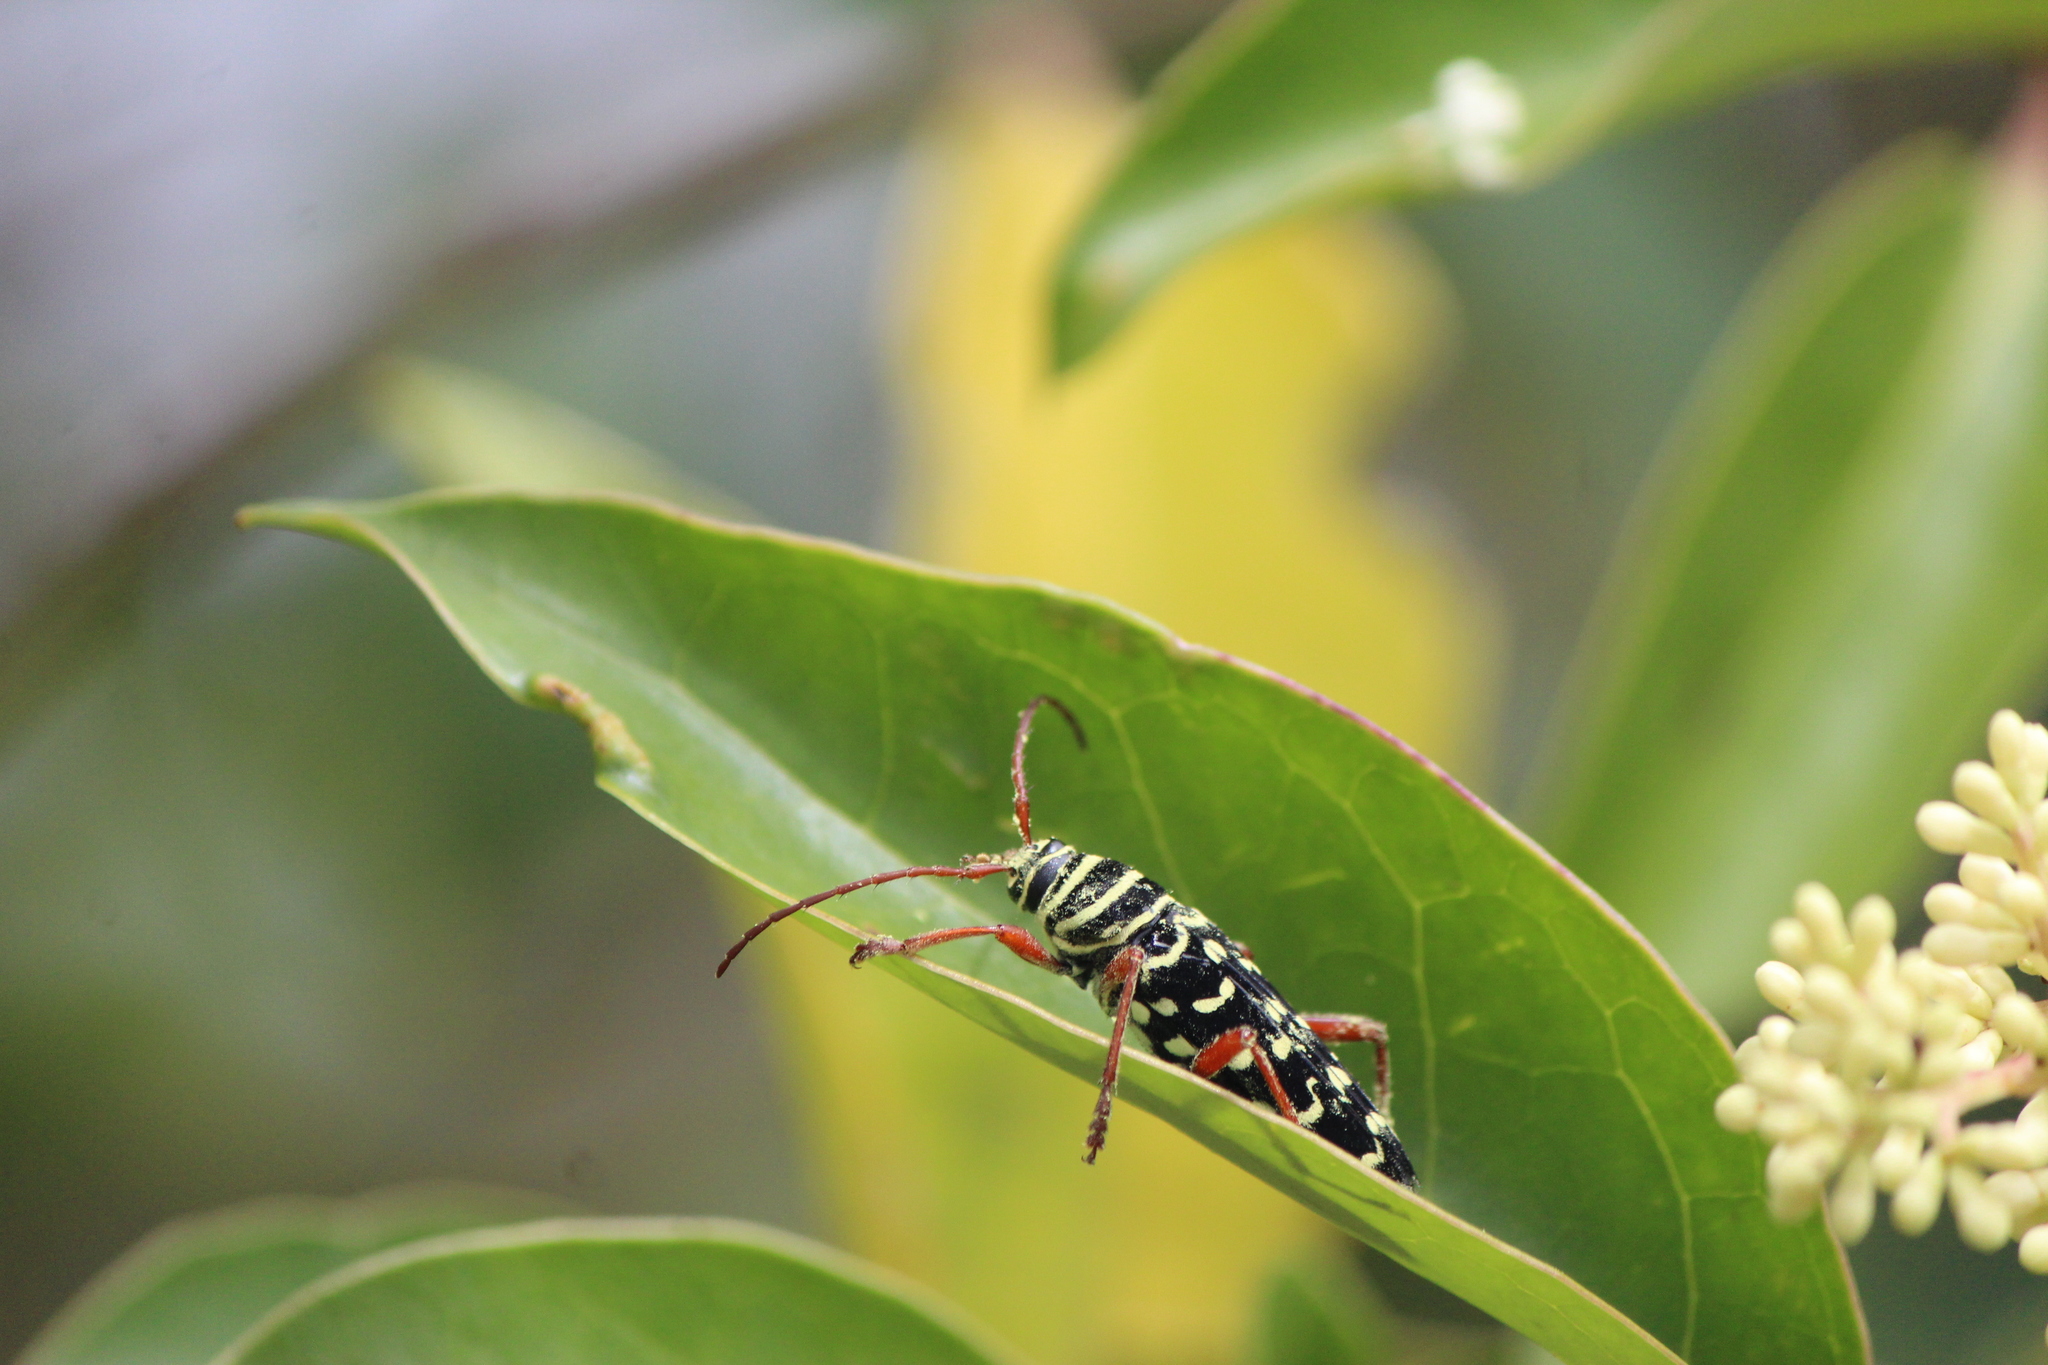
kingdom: Animalia
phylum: Arthropoda
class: Insecta
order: Coleoptera
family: Cerambycidae
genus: Placosternus
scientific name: Placosternus difficilis
